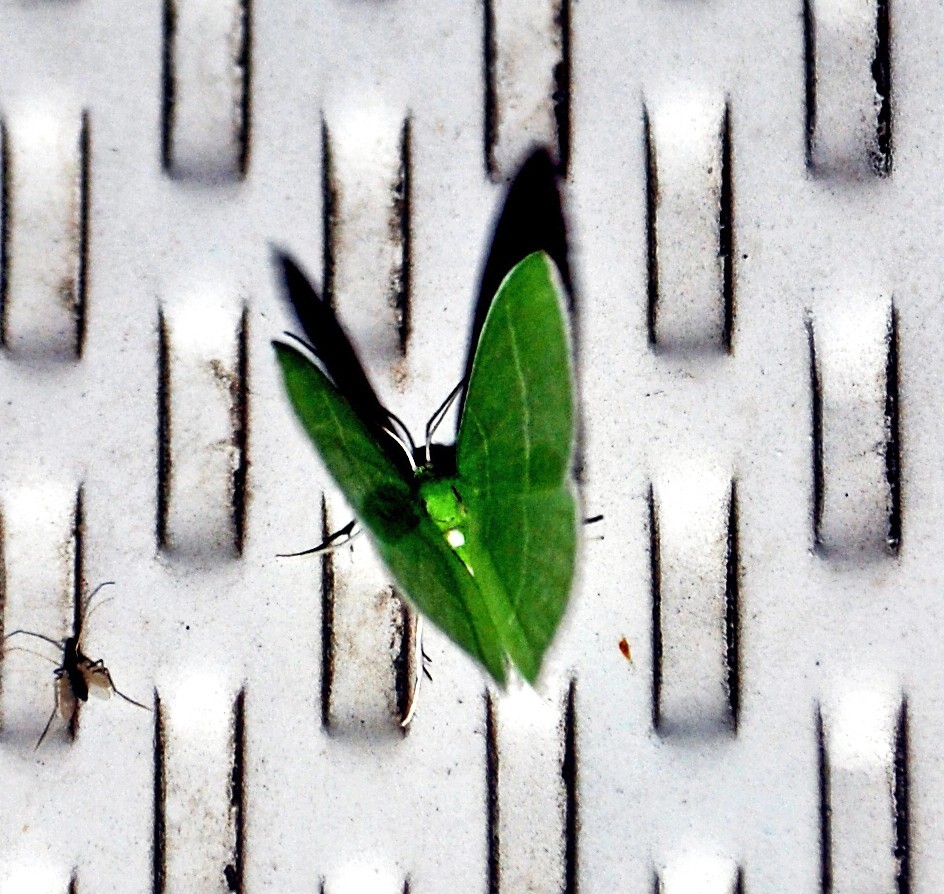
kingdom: Animalia
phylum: Arthropoda
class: Insecta
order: Lepidoptera
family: Geometridae
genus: Nemoria
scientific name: Nemoria mimosaria
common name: White-fringed emerald
